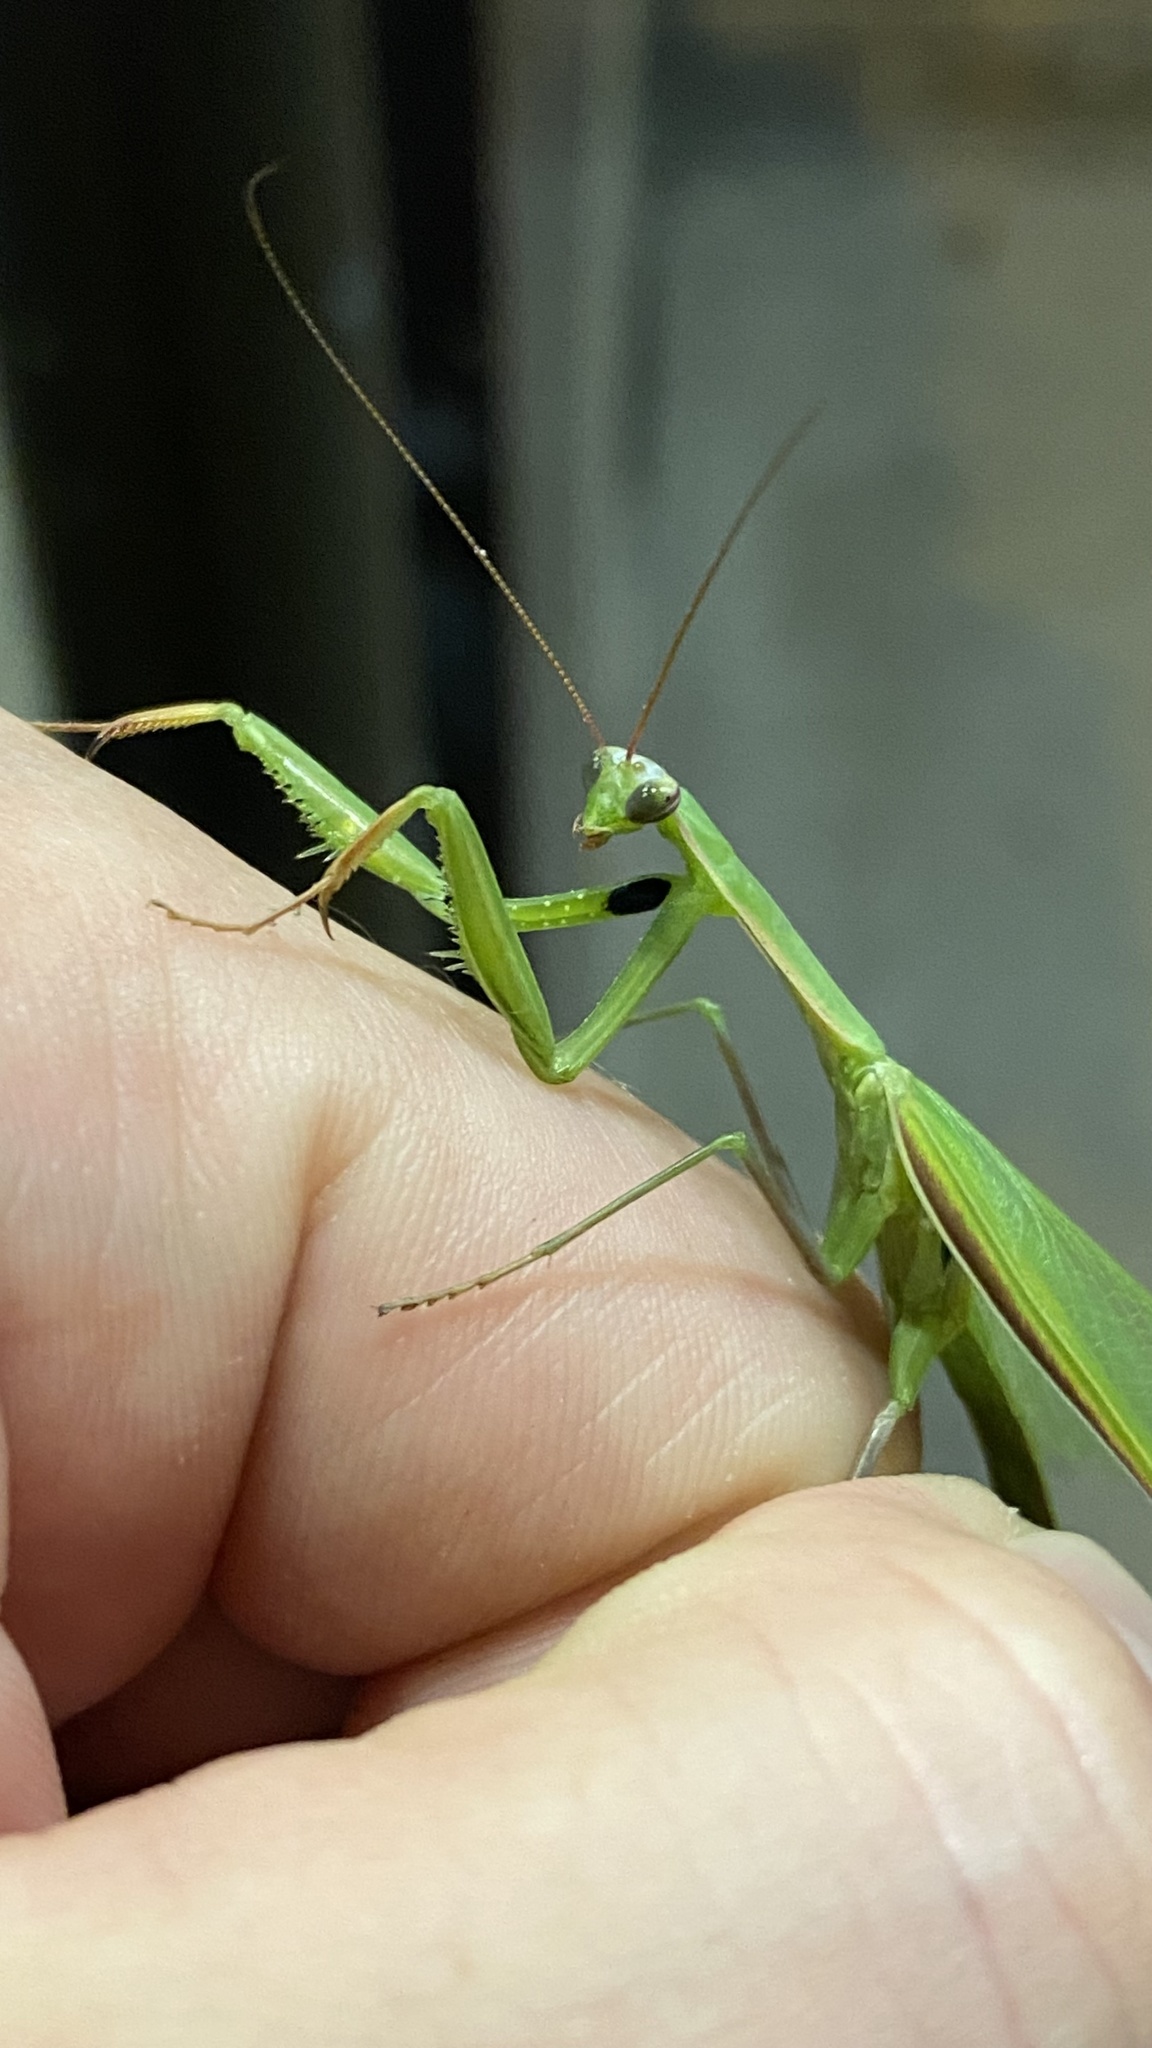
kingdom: Animalia
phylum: Arthropoda
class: Insecta
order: Mantodea
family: Mantidae
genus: Mantis
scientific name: Mantis religiosa
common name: Praying mantis
